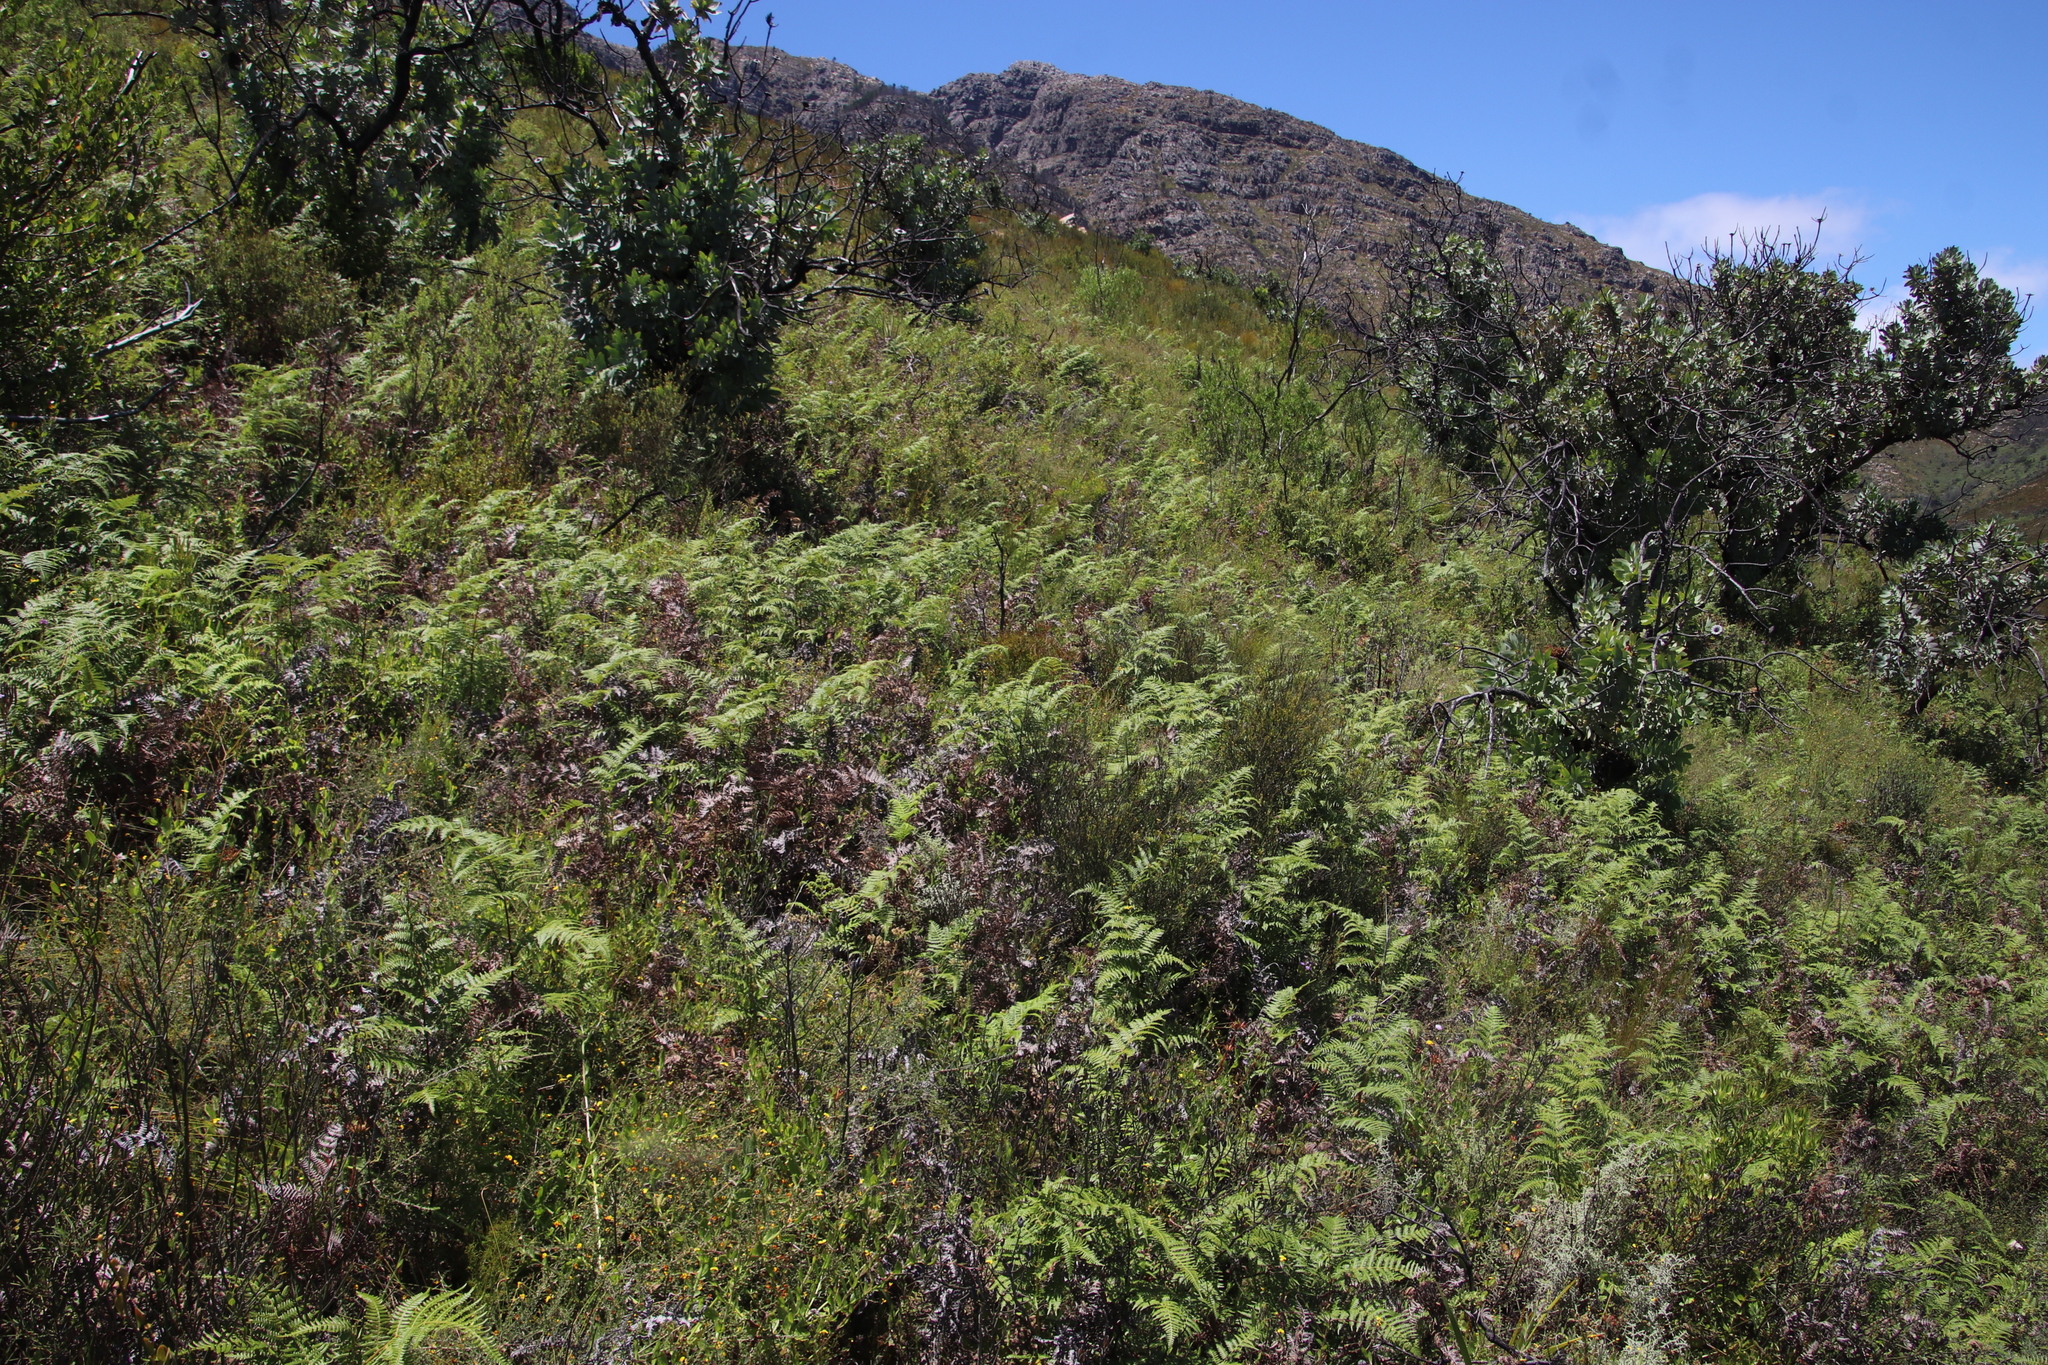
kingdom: Plantae
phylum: Tracheophyta
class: Polypodiopsida
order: Polypodiales
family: Dennstaedtiaceae
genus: Pteridium
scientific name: Pteridium aquilinum
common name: Bracken
